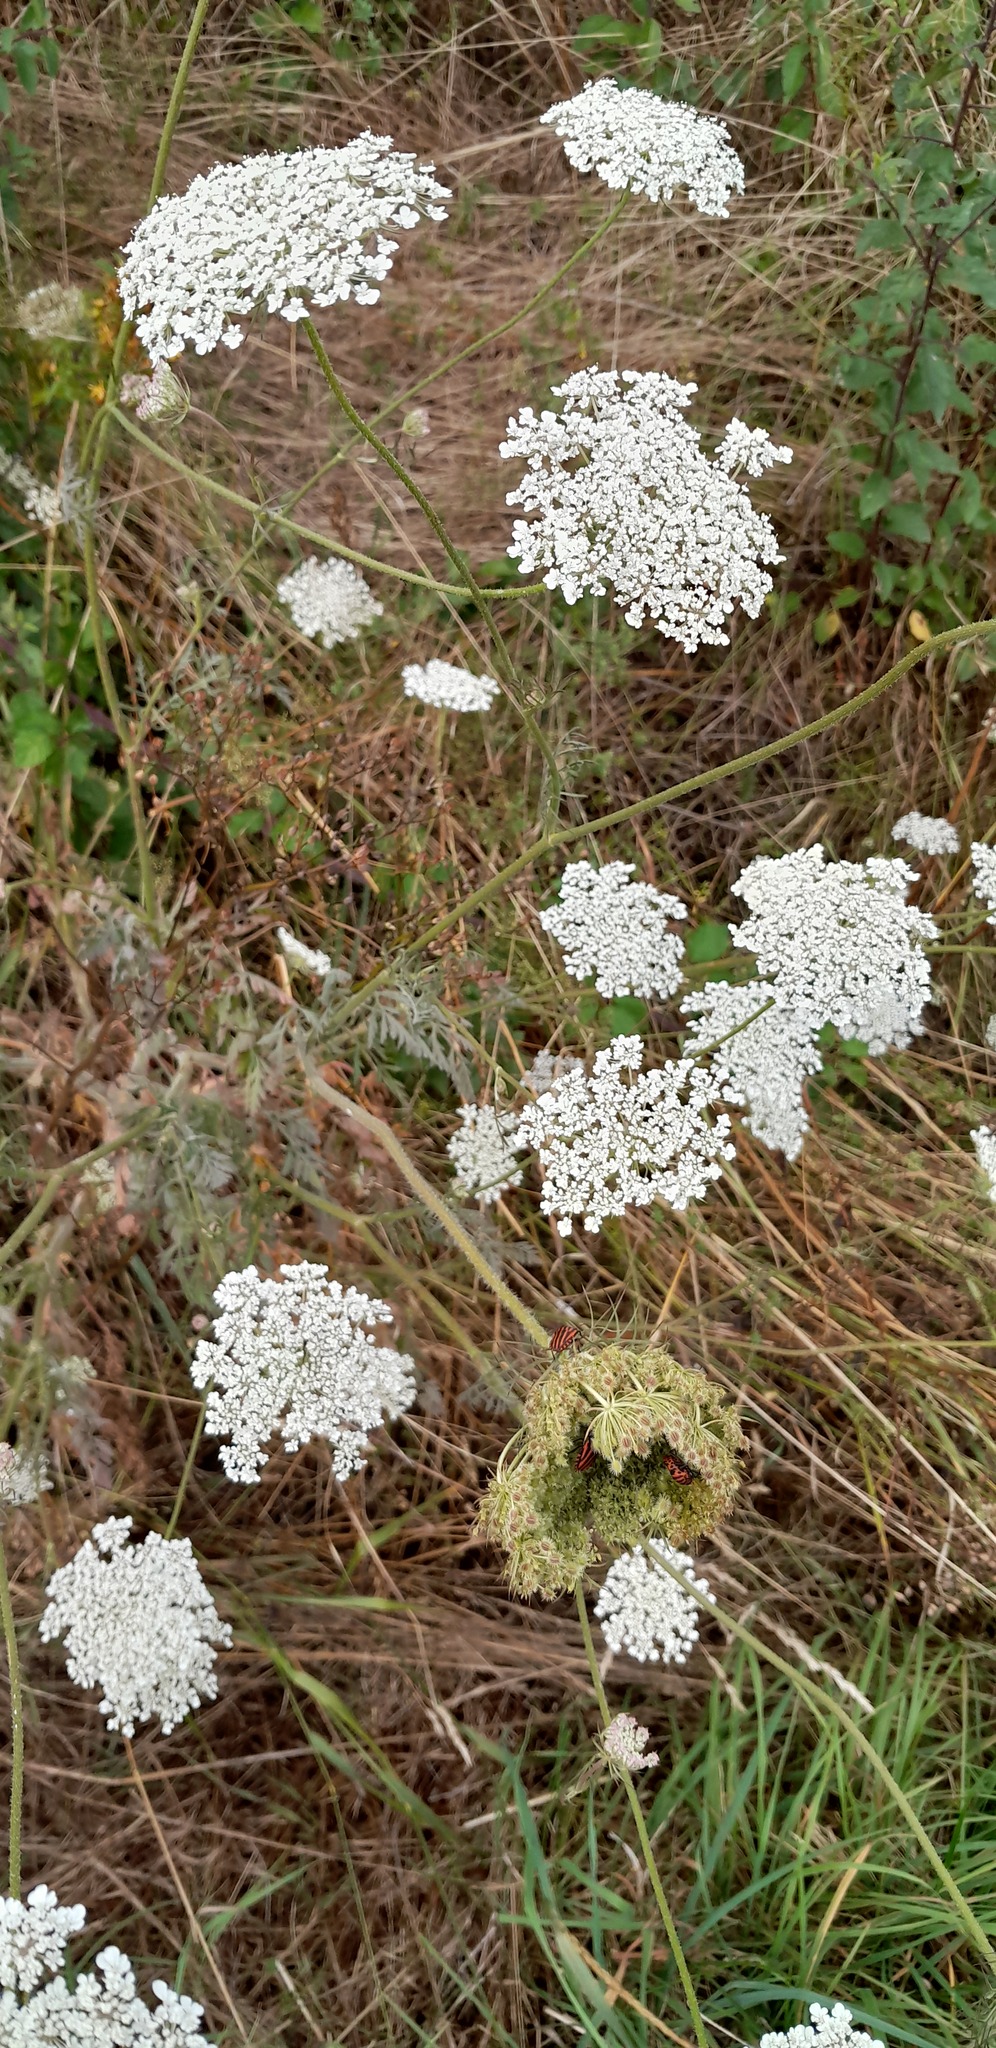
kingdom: Plantae
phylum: Tracheophyta
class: Magnoliopsida
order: Apiales
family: Apiaceae
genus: Daucus
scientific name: Daucus carota
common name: Wild carrot
